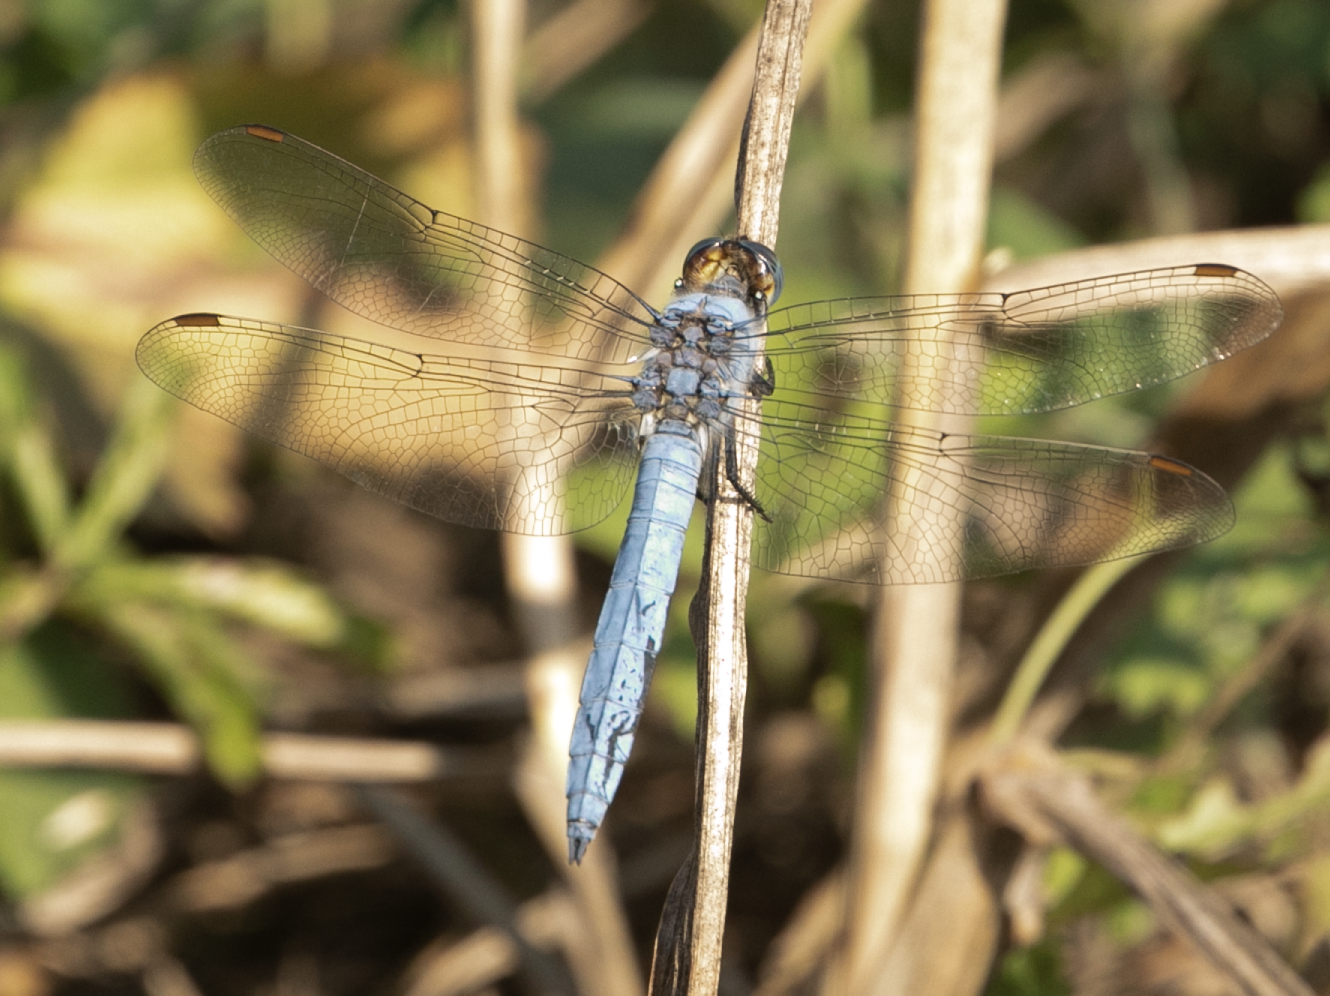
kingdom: Animalia
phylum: Arthropoda
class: Insecta
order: Odonata
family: Libellulidae
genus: Orthetrum
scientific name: Orthetrum brunneum
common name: Southern skimmer
